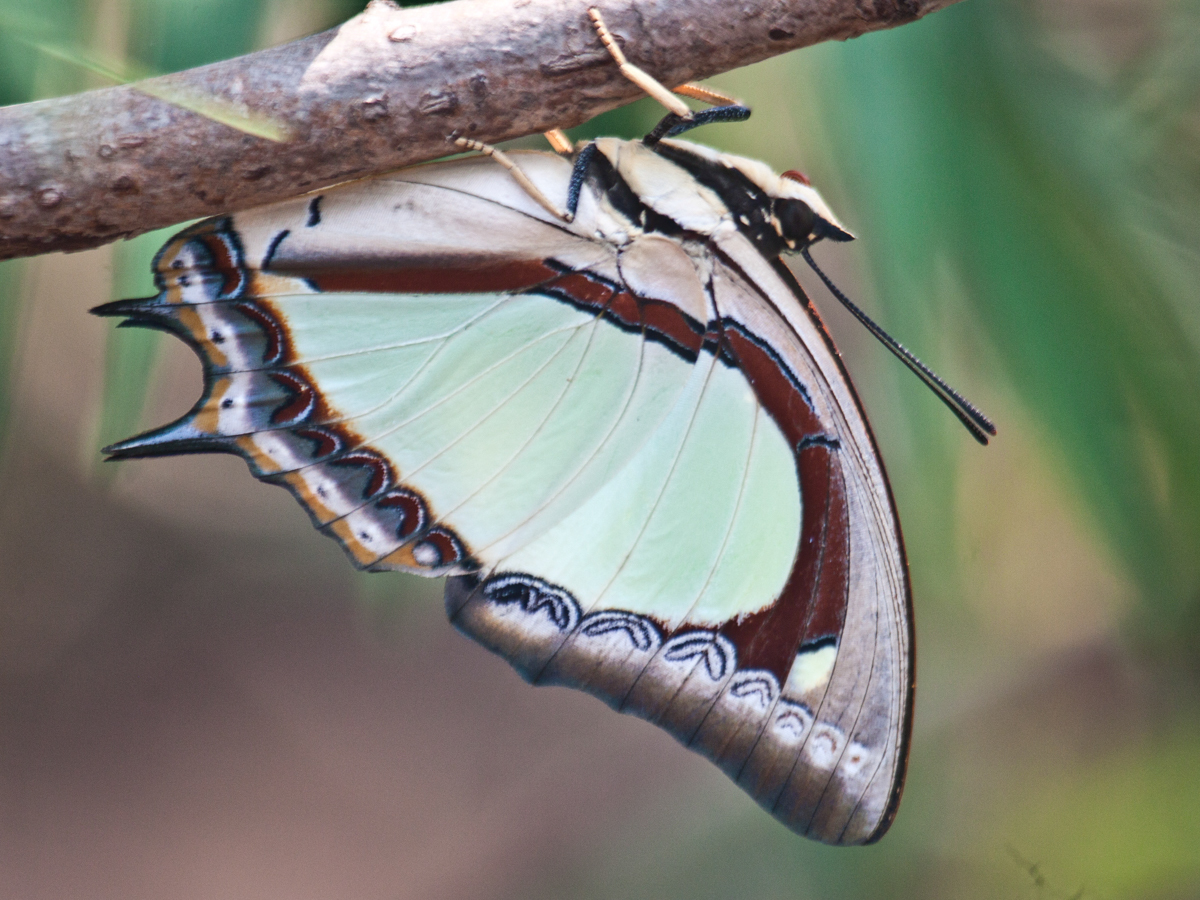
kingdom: Animalia
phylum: Arthropoda
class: Insecta
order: Lepidoptera
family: Nymphalidae
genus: Polyura
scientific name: Polyura jalysus
